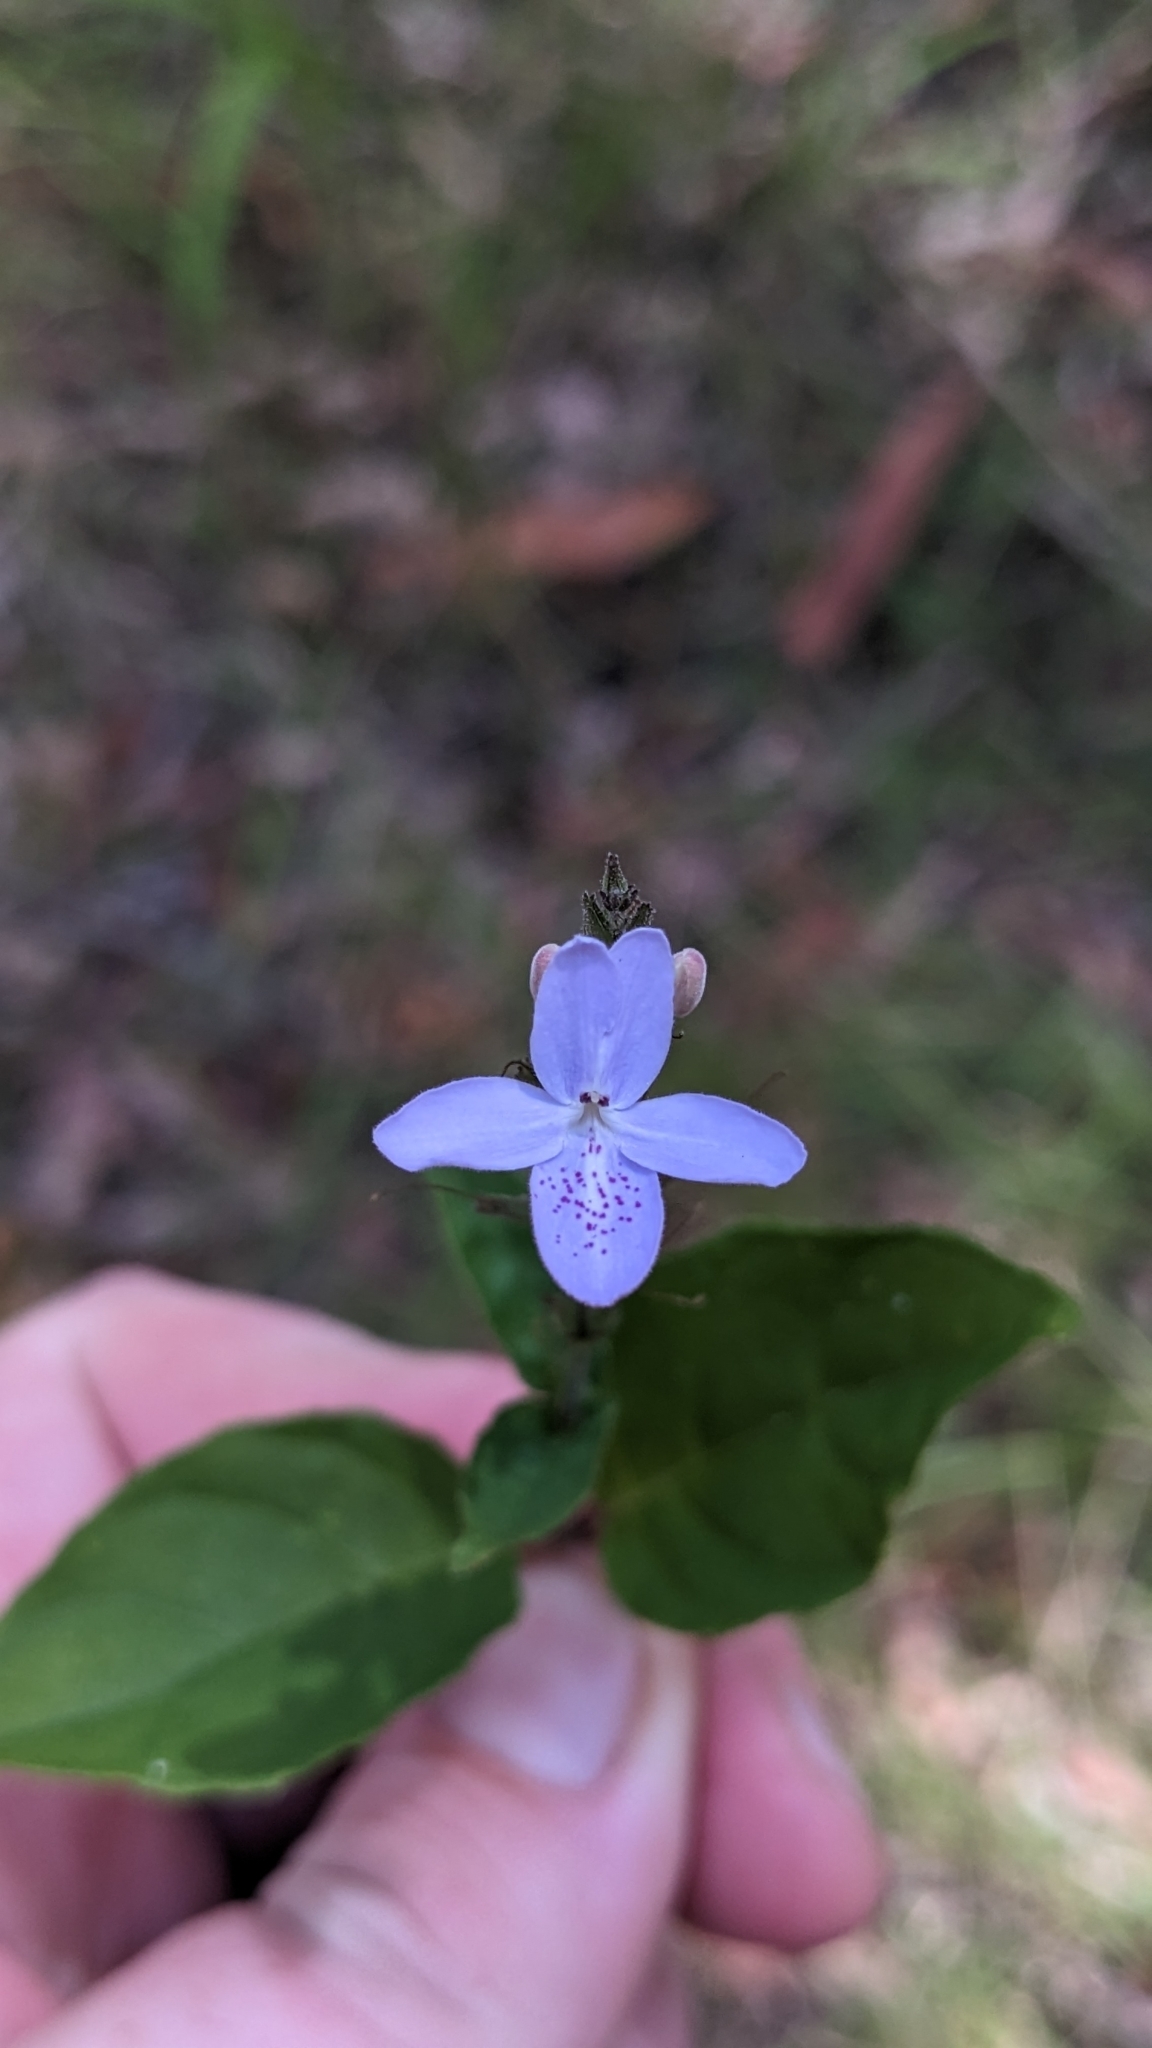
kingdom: Plantae
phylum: Tracheophyta
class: Magnoliopsida
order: Lamiales
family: Acanthaceae
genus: Pseuderanthemum
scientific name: Pseuderanthemum variabile
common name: Night and afternoon
